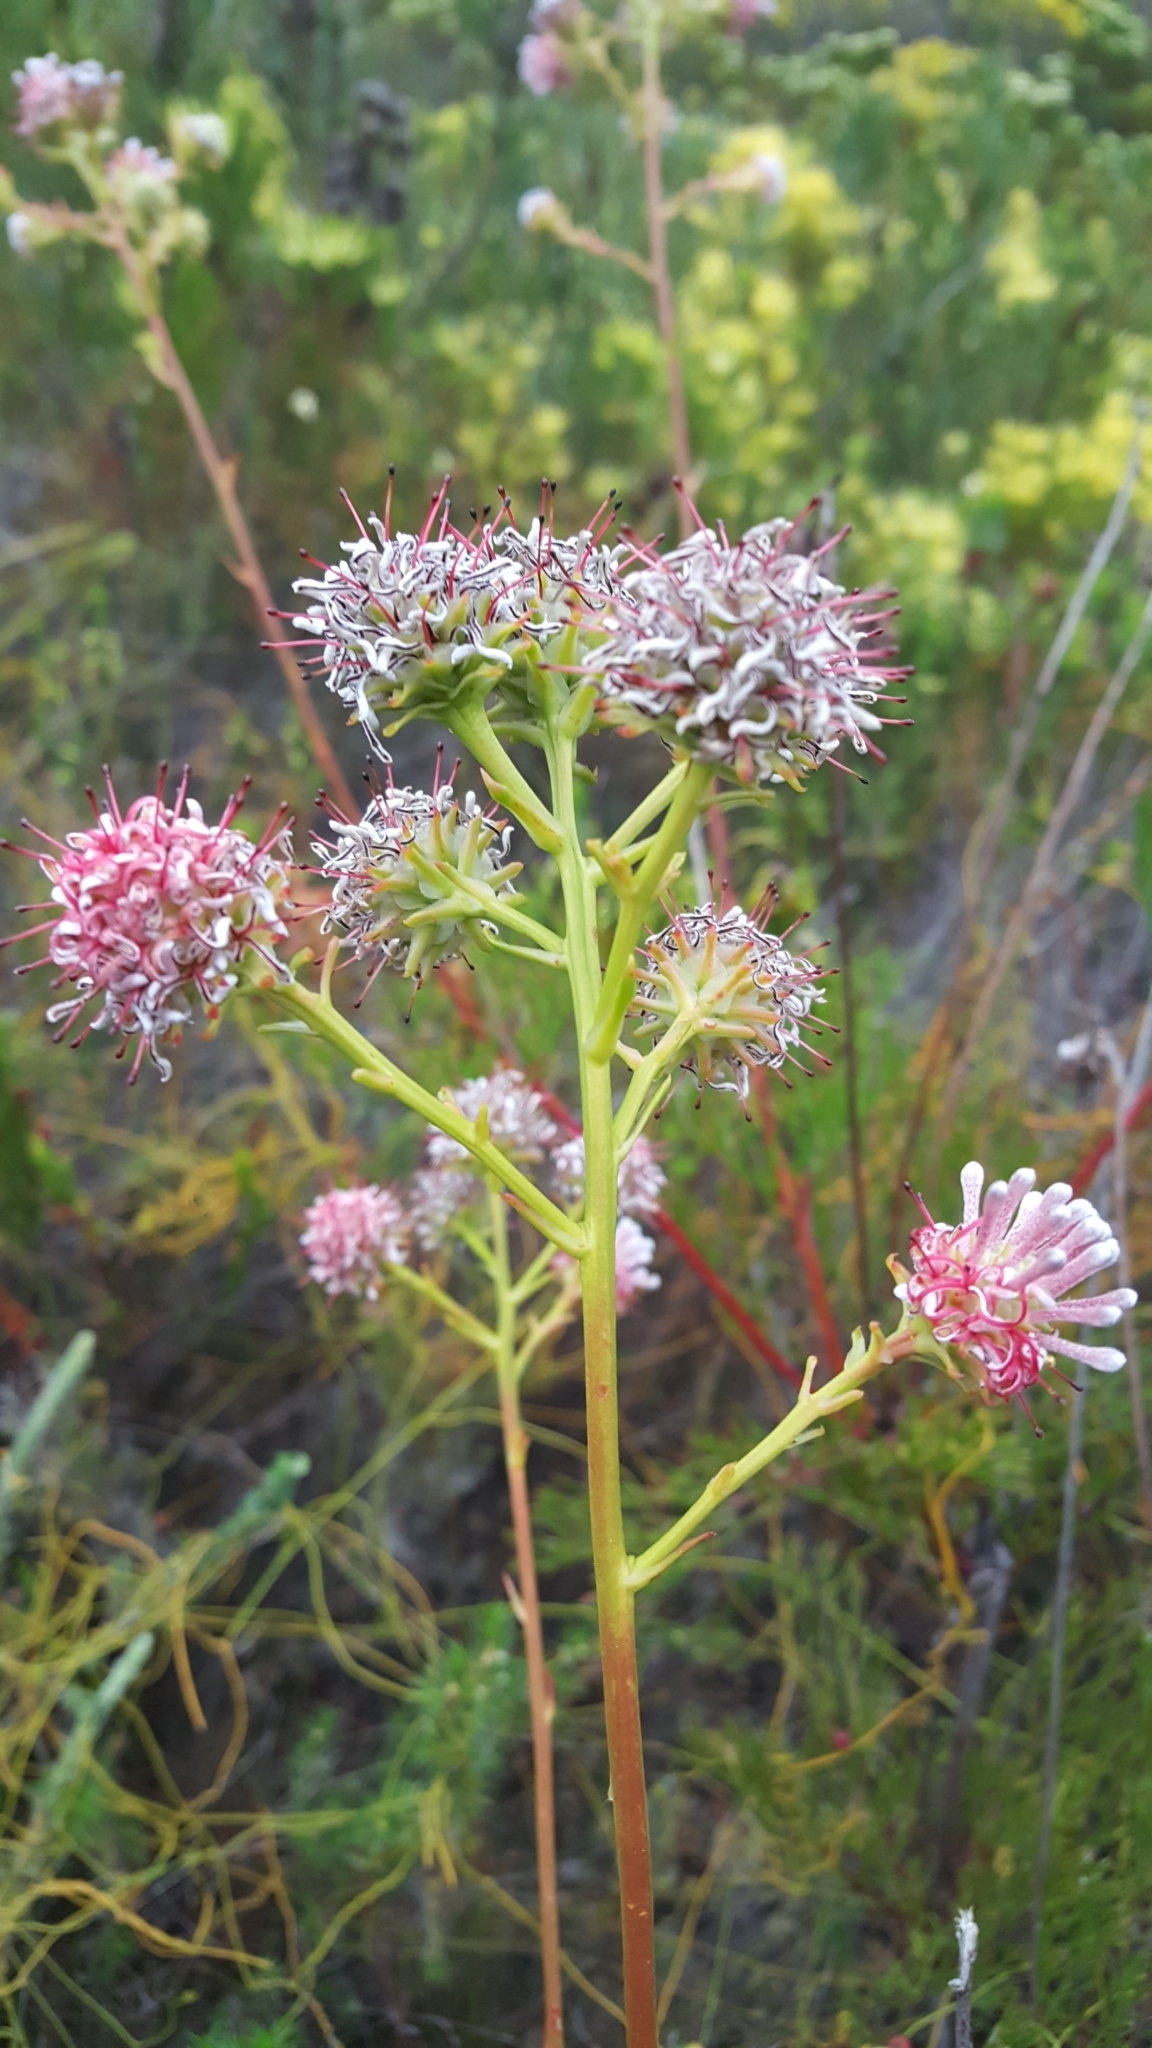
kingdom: Plantae
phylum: Tracheophyta
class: Magnoliopsida
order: Proteales
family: Proteaceae
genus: Serruria
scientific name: Serruria elongata
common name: Long-stalk spiderhead
